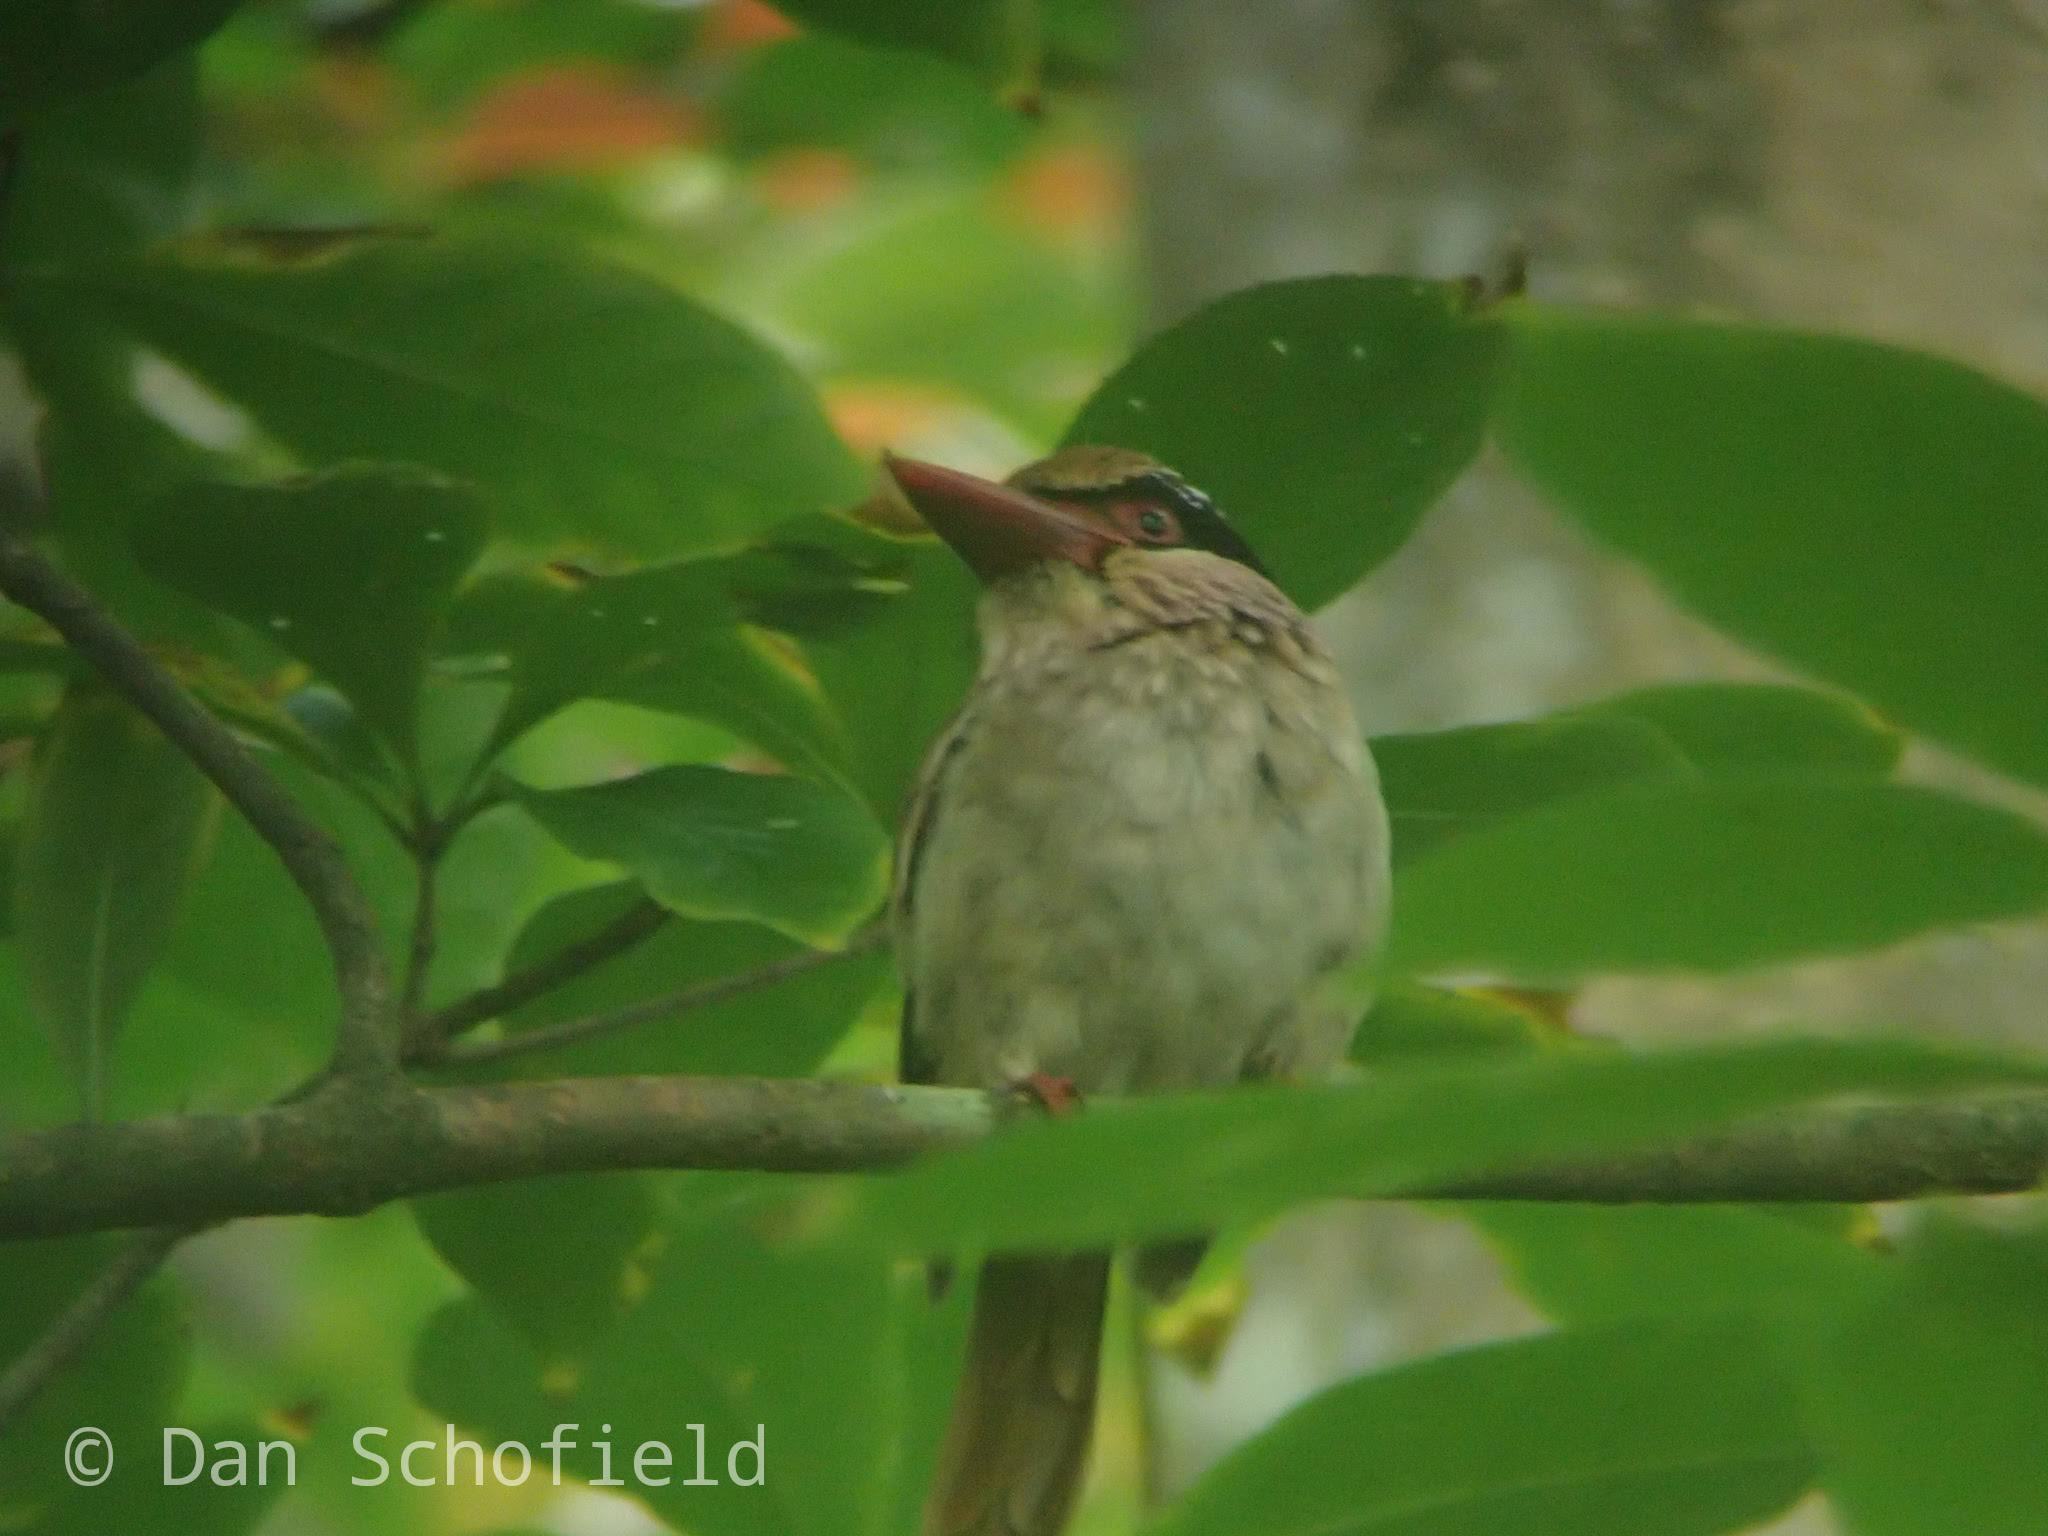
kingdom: Animalia
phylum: Chordata
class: Aves
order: Coraciiformes
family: Alcedinidae
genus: Cittura
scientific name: Cittura cyanotis
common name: Lilac kingfisher
